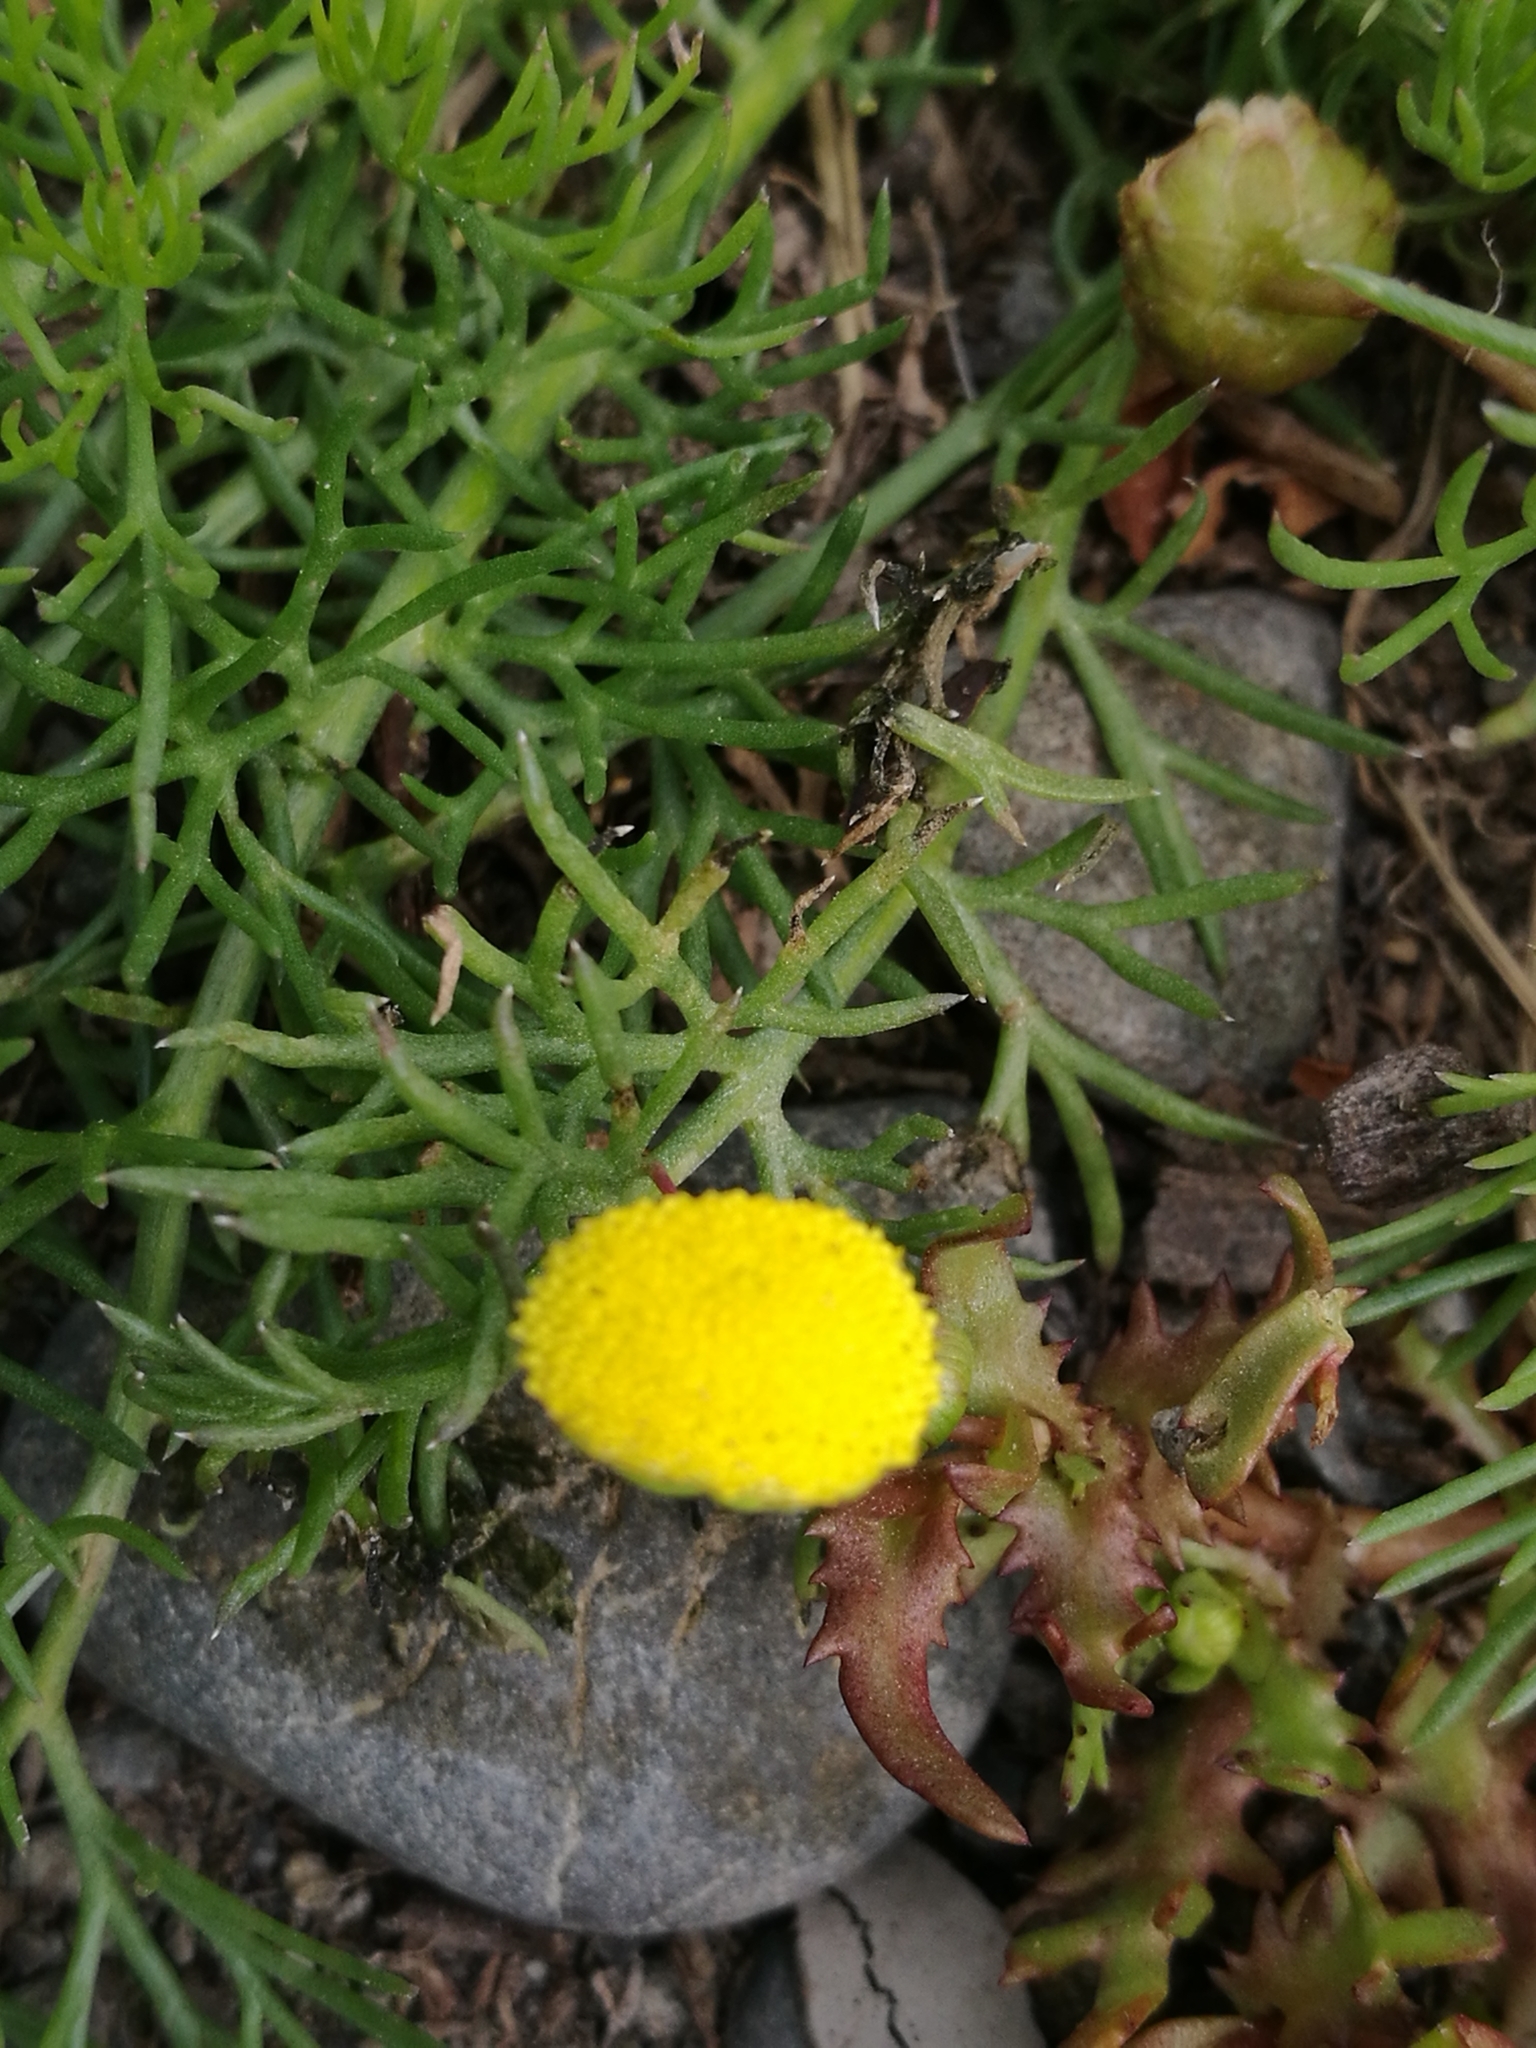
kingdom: Plantae
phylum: Tracheophyta
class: Magnoliopsida
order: Asterales
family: Asteraceae
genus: Cotula
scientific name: Cotula coronopifolia
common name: Buttonweed
